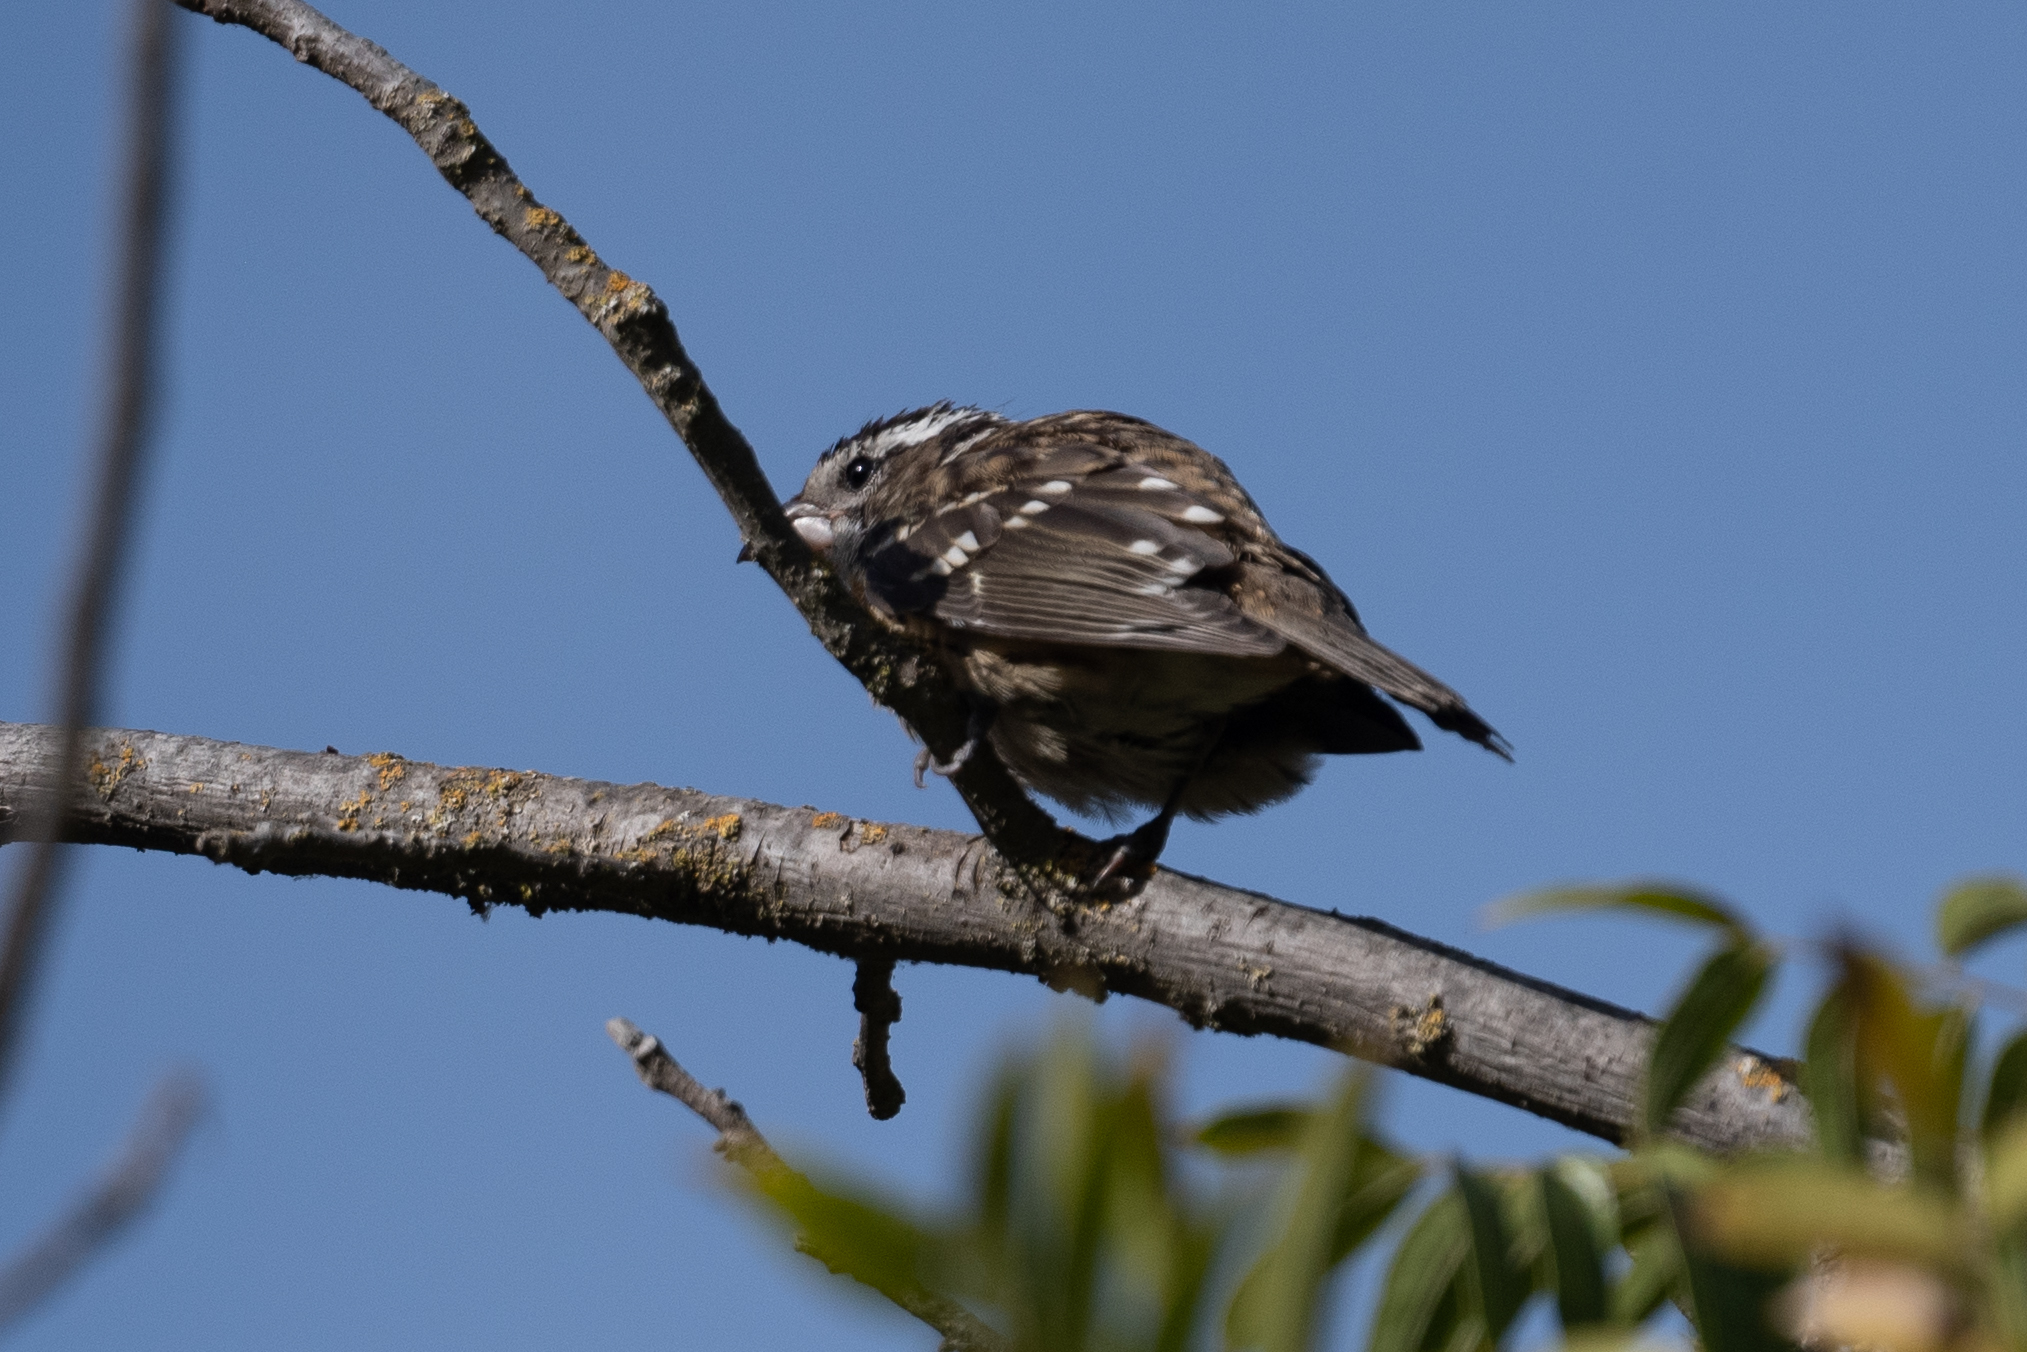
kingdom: Animalia
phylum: Chordata
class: Aves
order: Passeriformes
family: Cardinalidae
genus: Pheucticus
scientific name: Pheucticus melanocephalus
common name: Black-headed grosbeak
